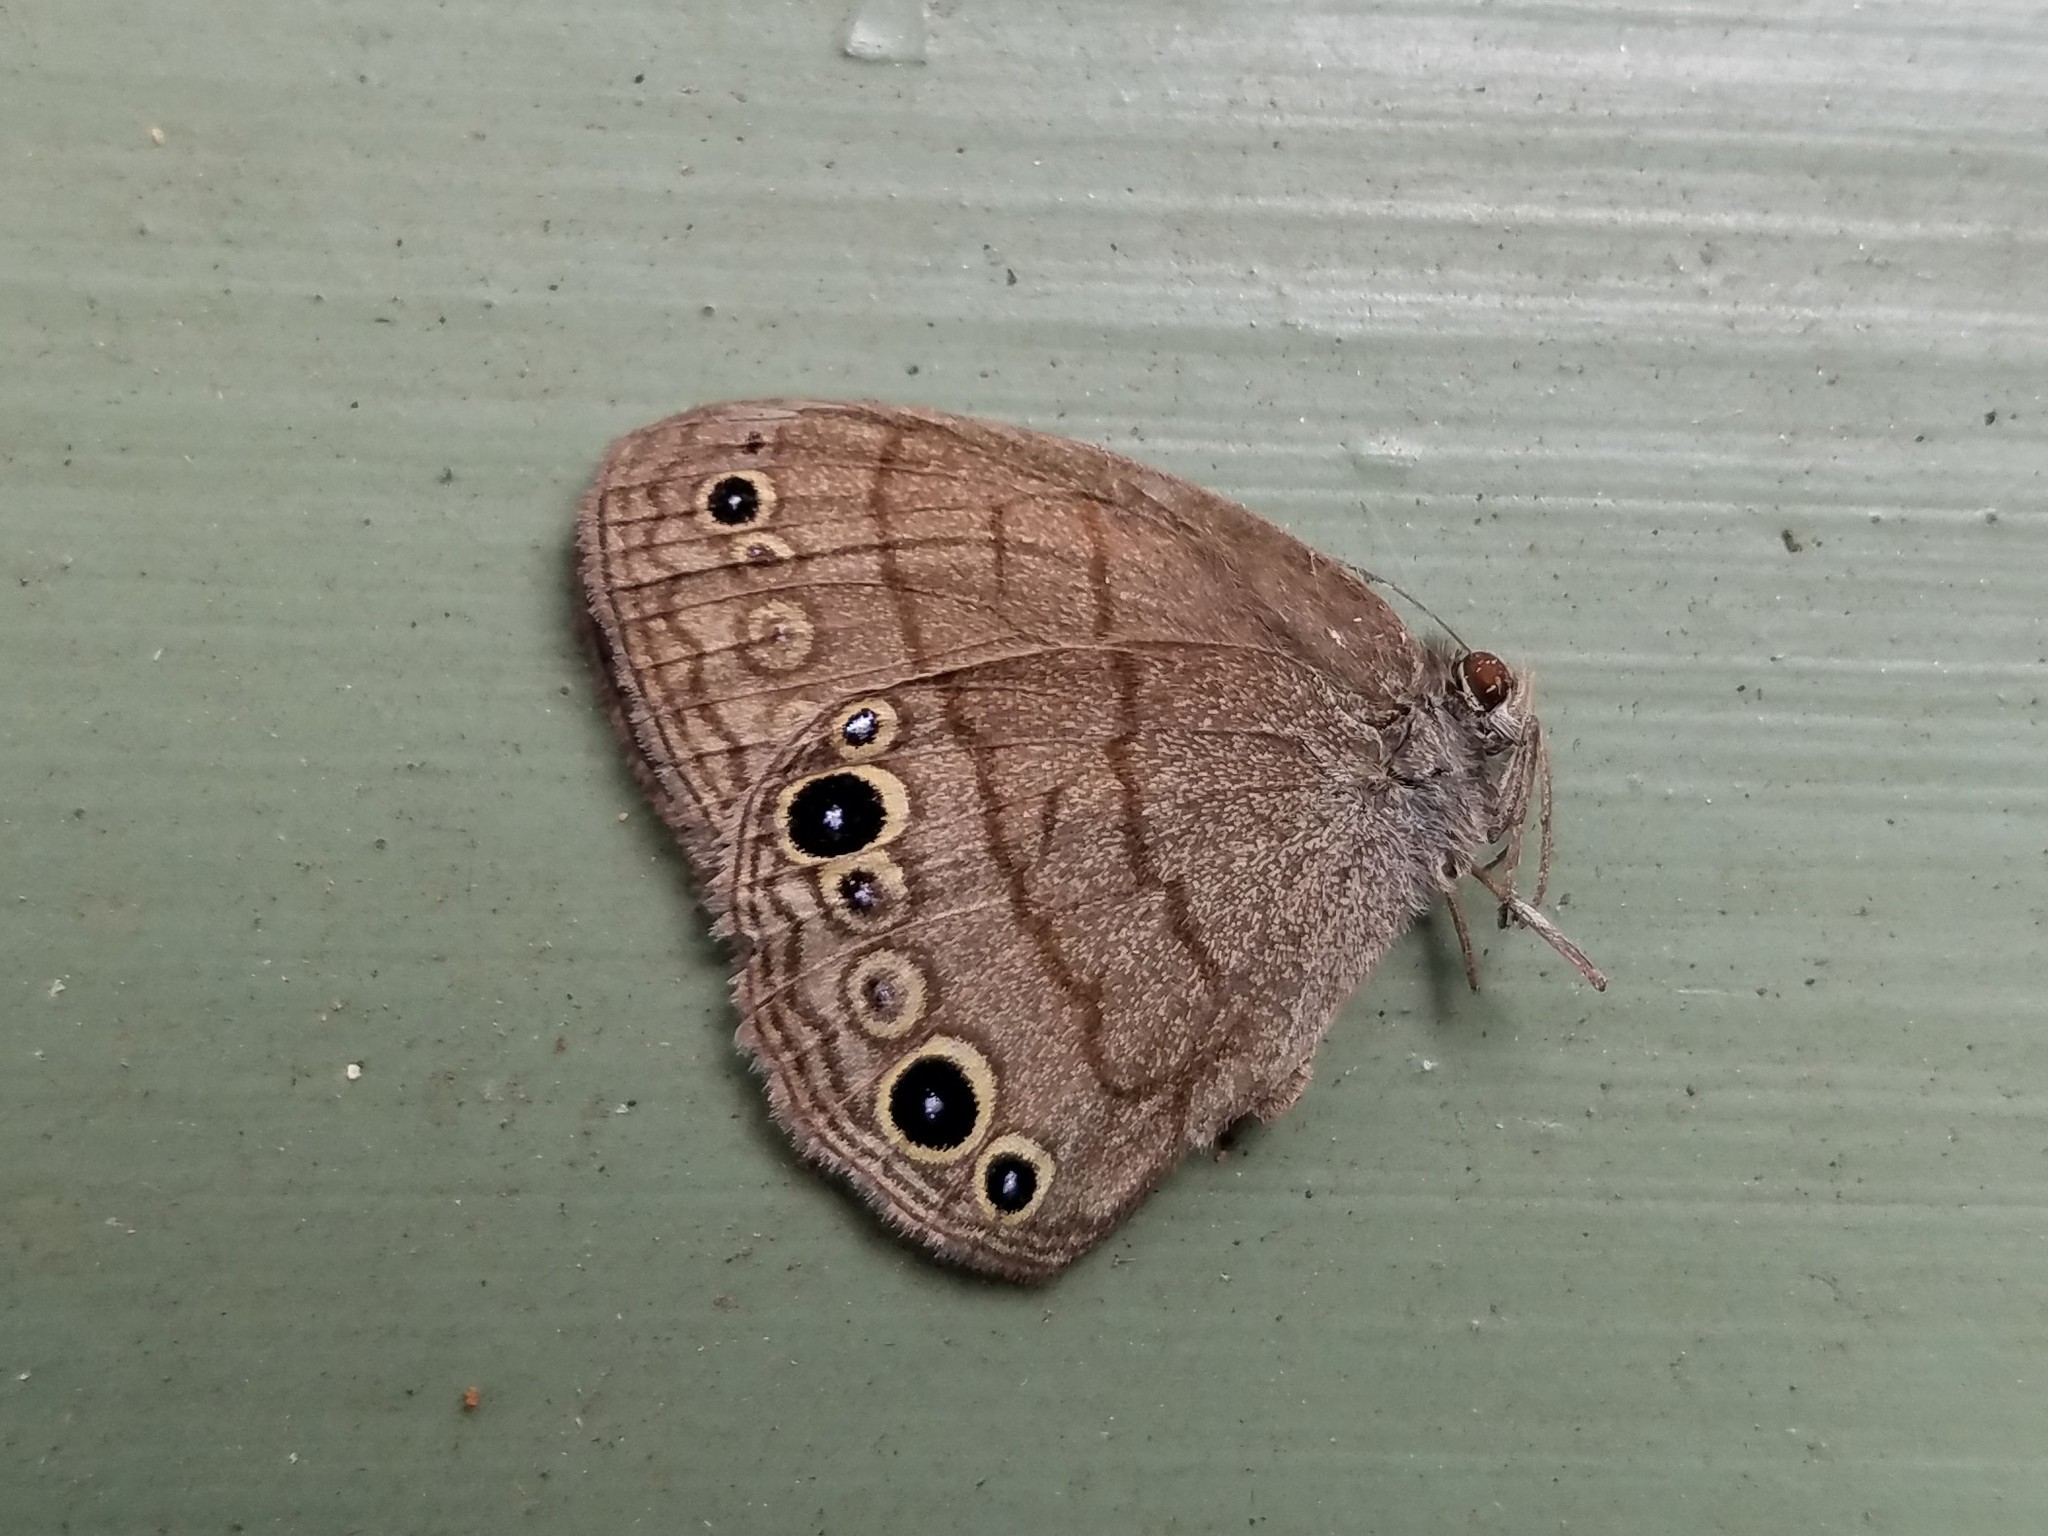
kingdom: Animalia
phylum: Arthropoda
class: Insecta
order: Lepidoptera
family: Nymphalidae
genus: Hermeuptychia
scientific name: Hermeuptychia hermes
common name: Hermes satyr
